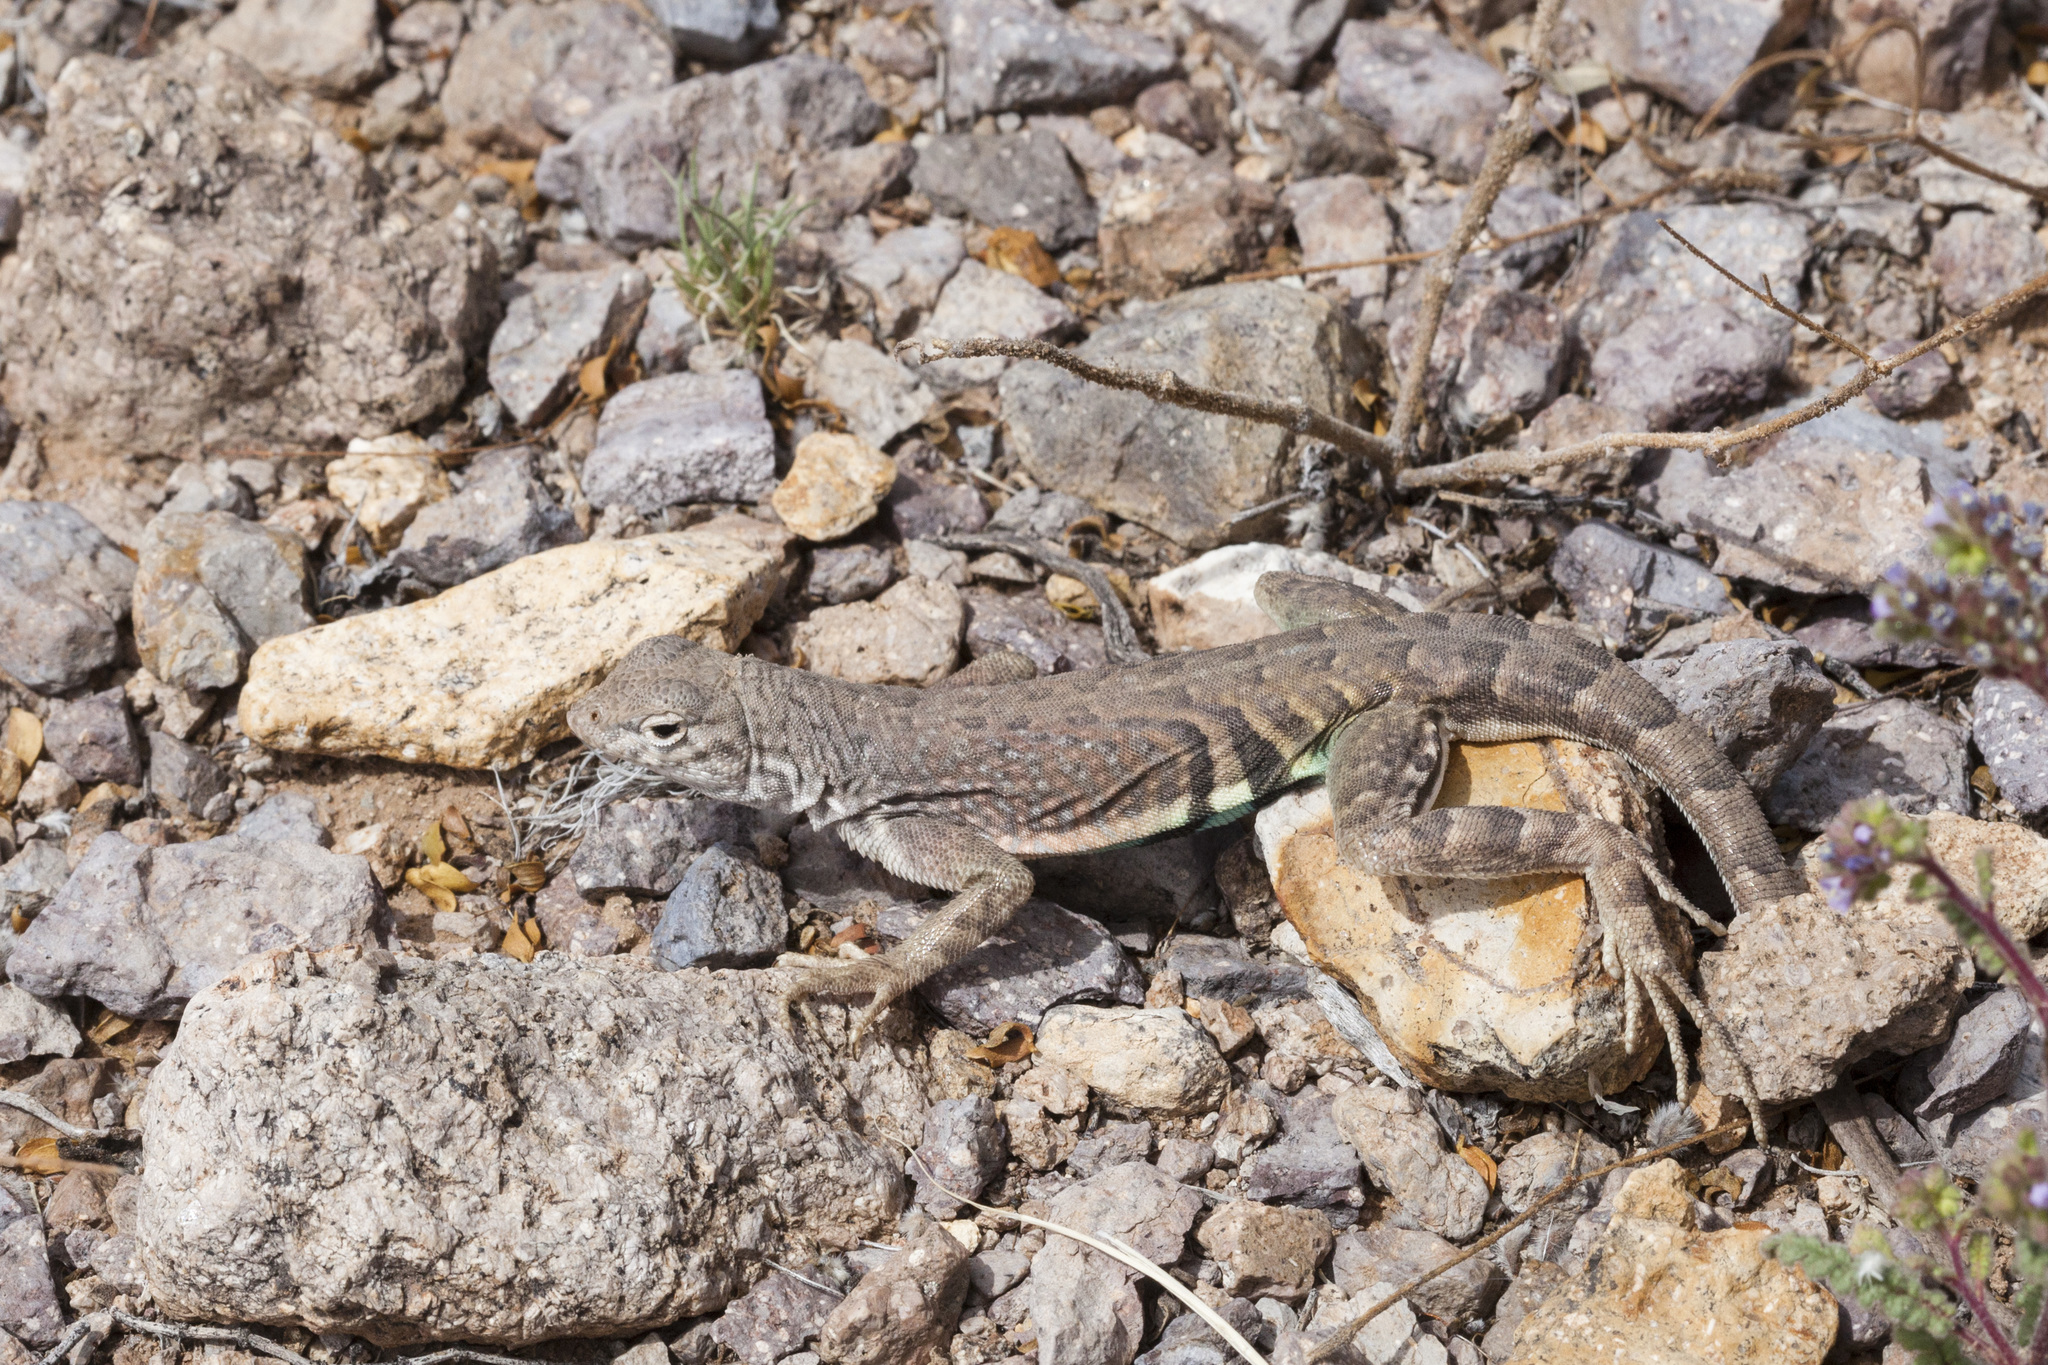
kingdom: Animalia
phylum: Chordata
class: Squamata
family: Phrynosomatidae
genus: Cophosaurus
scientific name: Cophosaurus texanus
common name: Greater earless lizard
